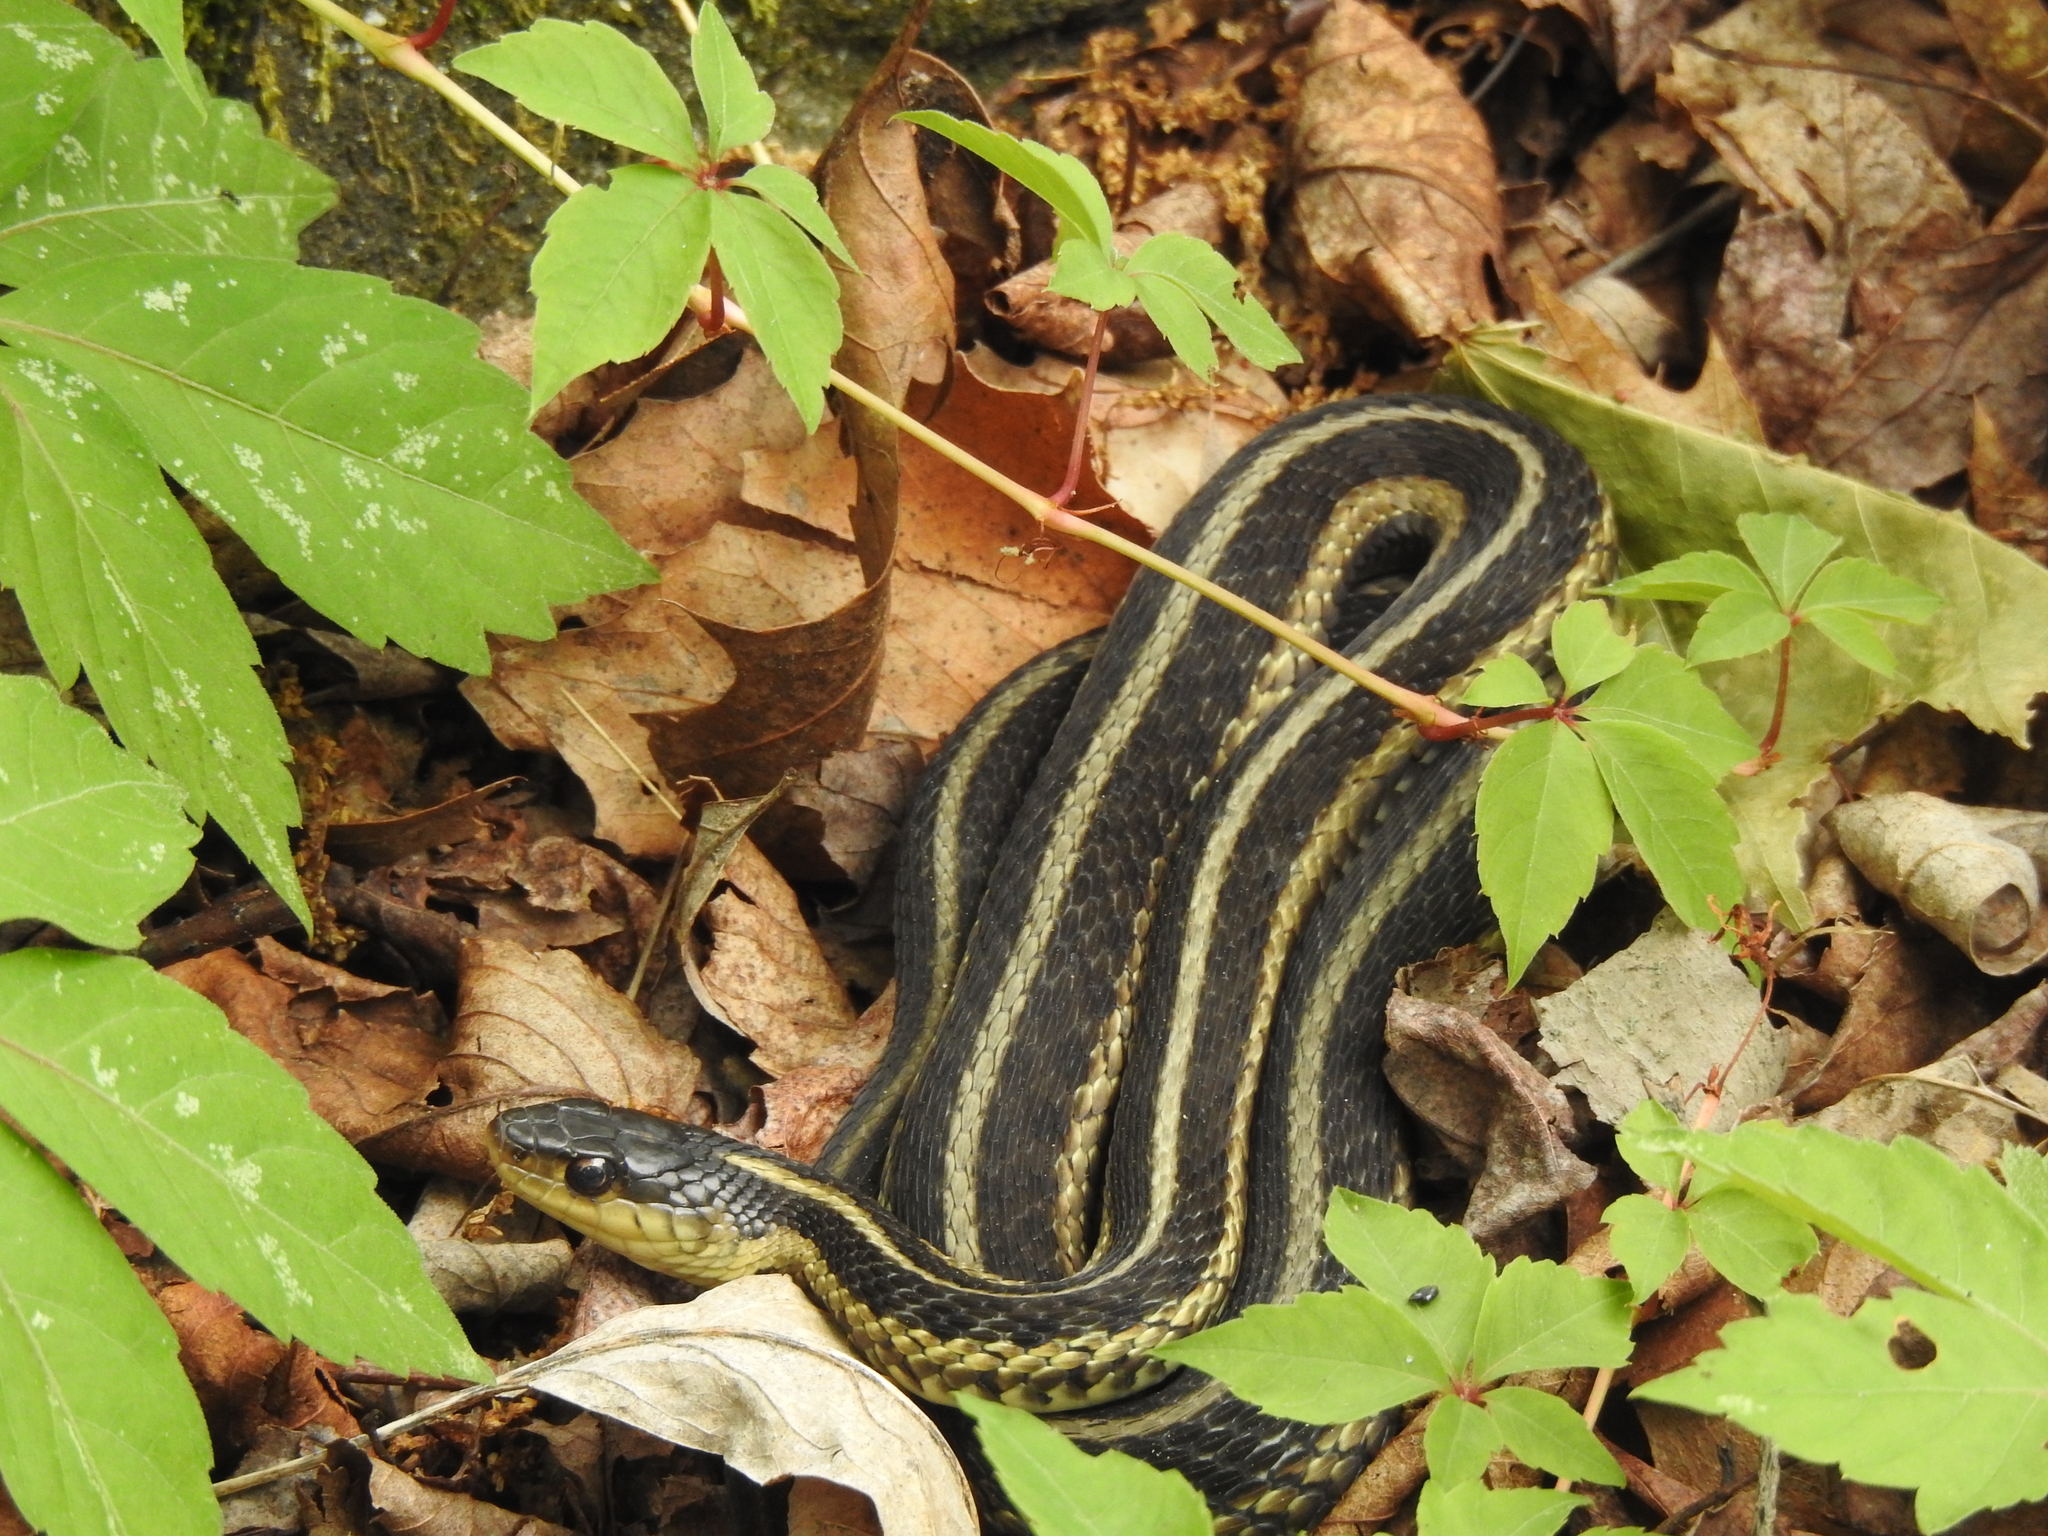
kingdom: Animalia
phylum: Chordata
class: Squamata
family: Colubridae
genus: Thamnophis
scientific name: Thamnophis sirtalis
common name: Common garter snake
